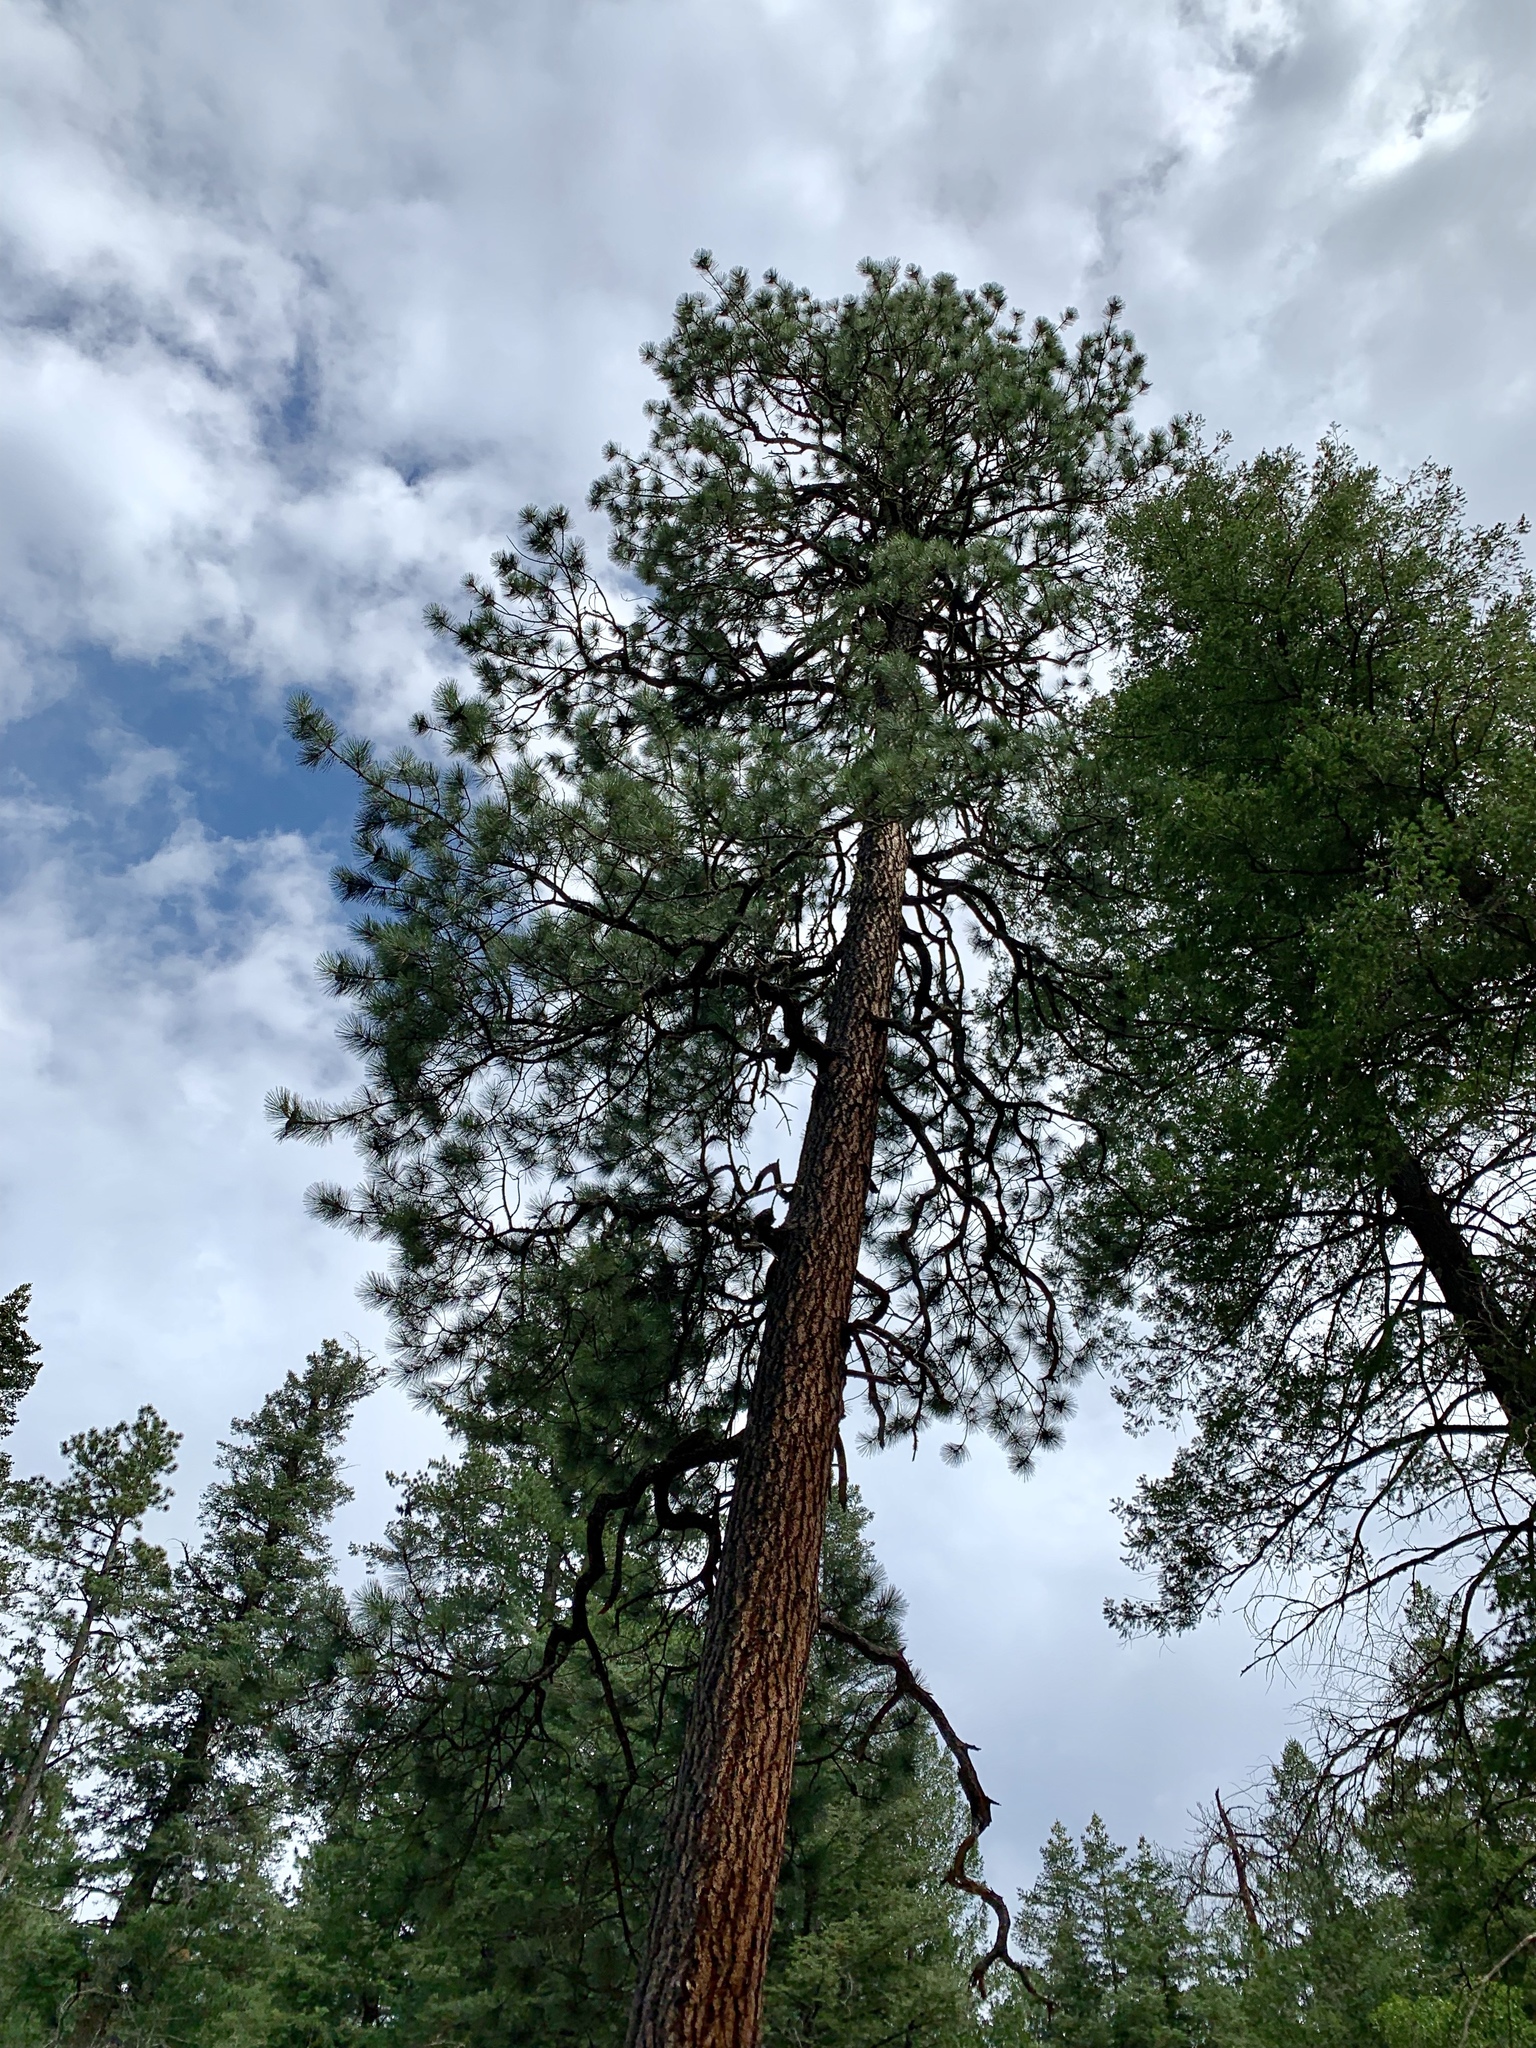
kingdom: Plantae
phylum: Tracheophyta
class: Pinopsida
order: Pinales
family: Pinaceae
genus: Pinus
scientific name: Pinus ponderosa
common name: Western yellow-pine
